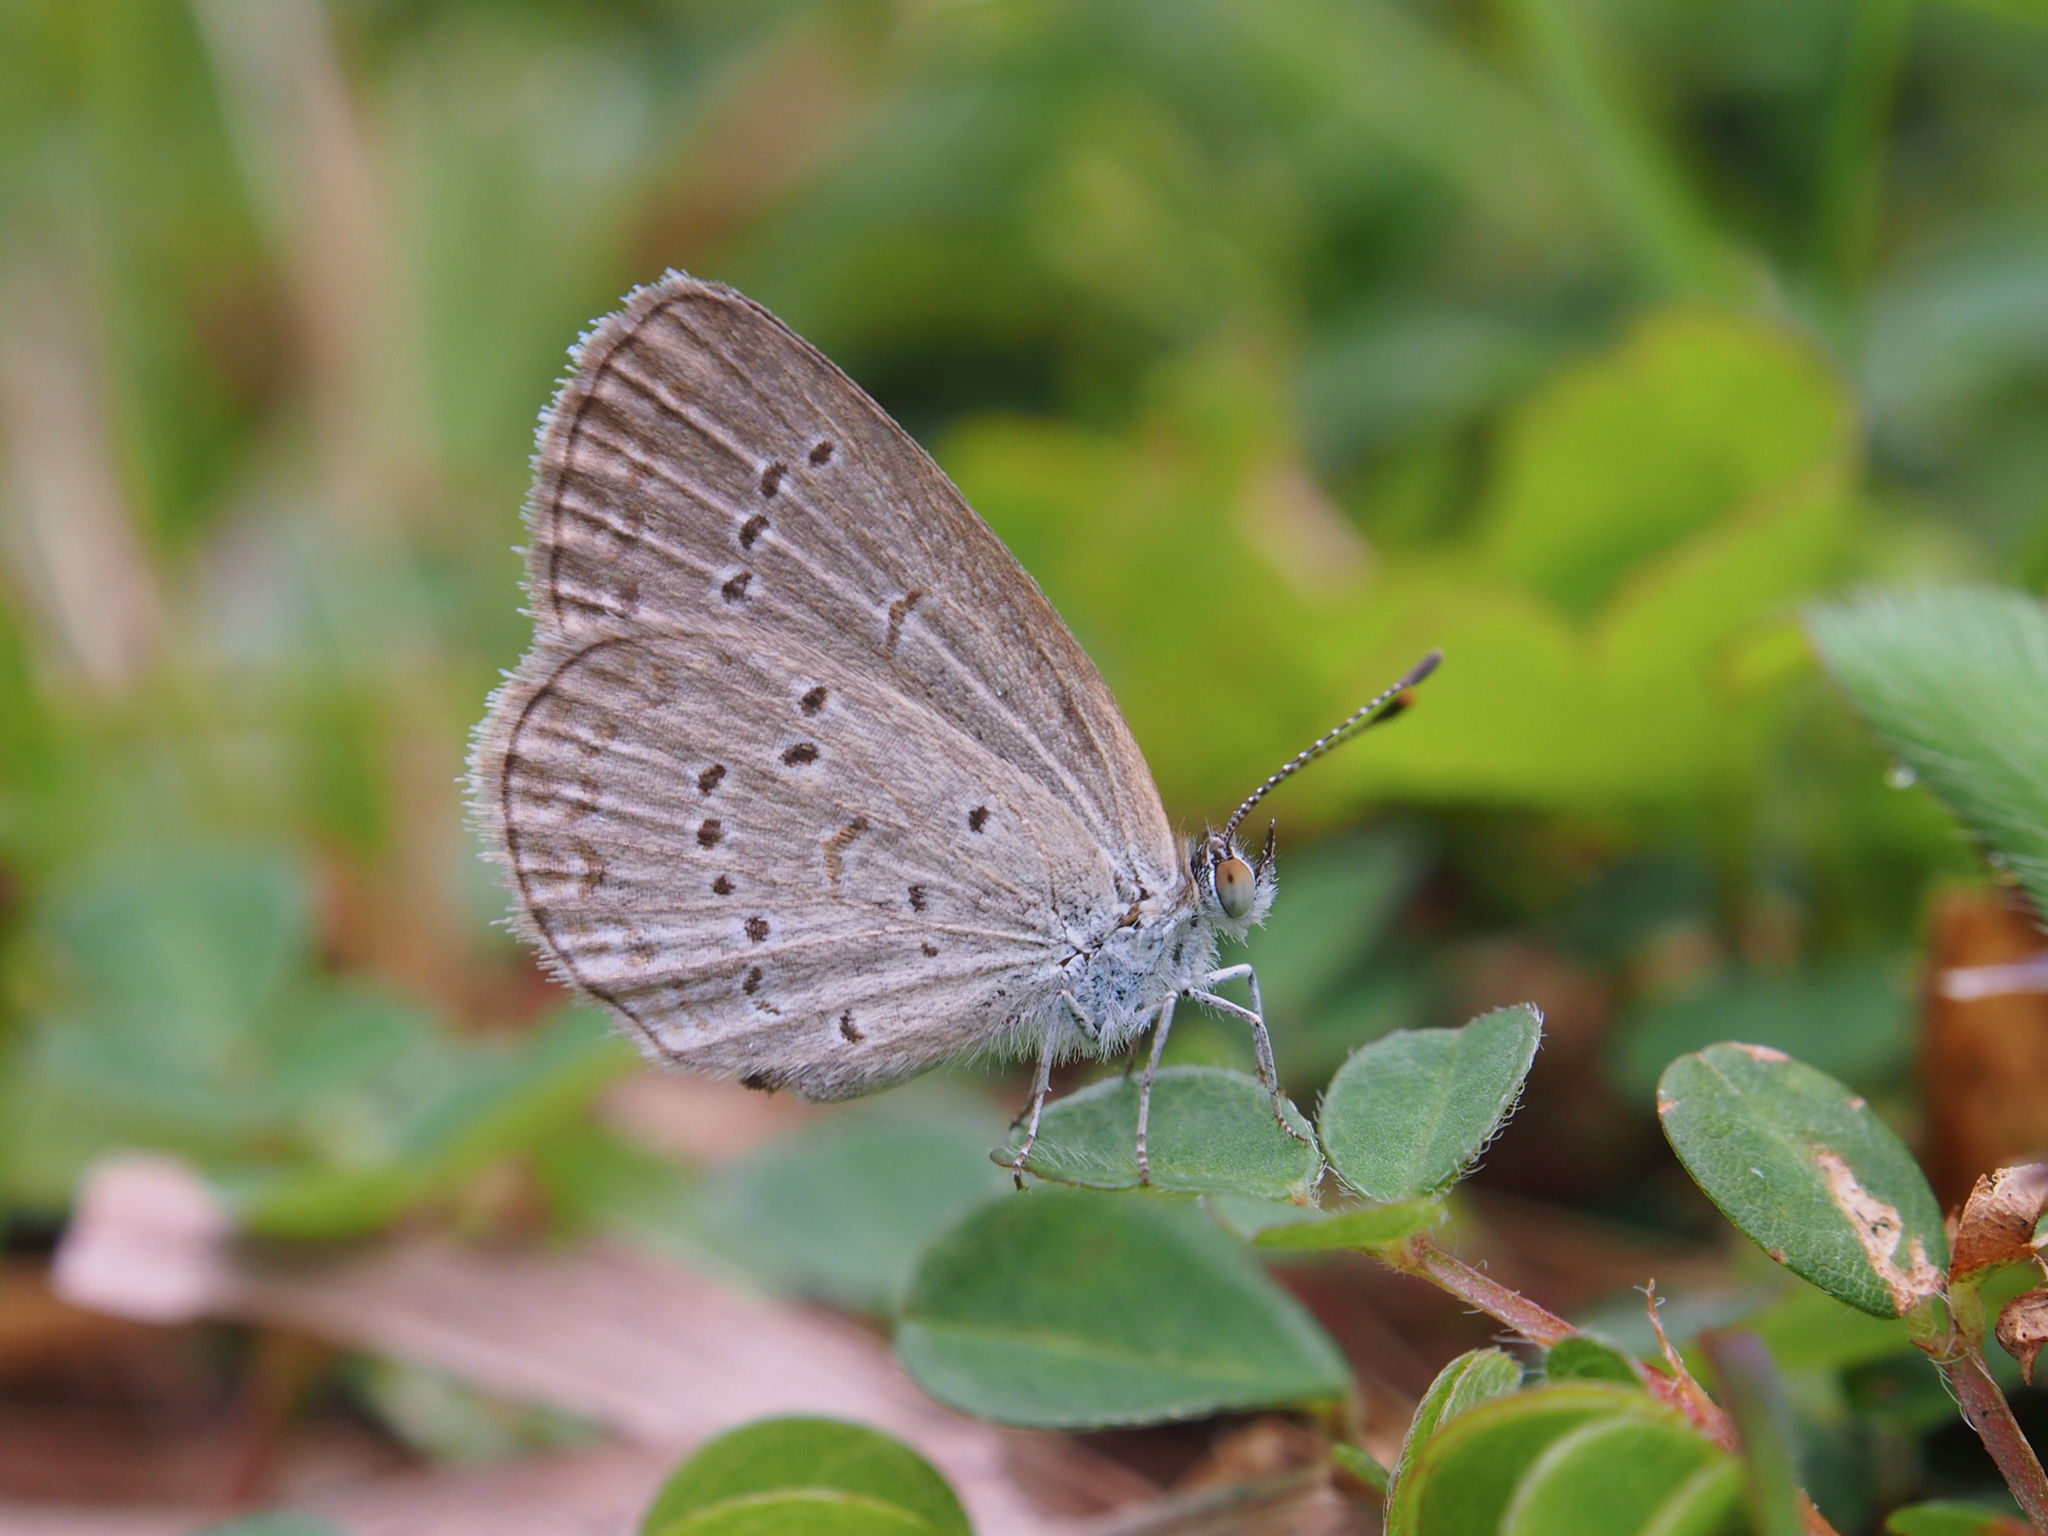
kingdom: Animalia
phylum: Arthropoda
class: Insecta
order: Lepidoptera
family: Lycaenidae
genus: Zizina
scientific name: Zizina otis
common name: Lesser grass blue
